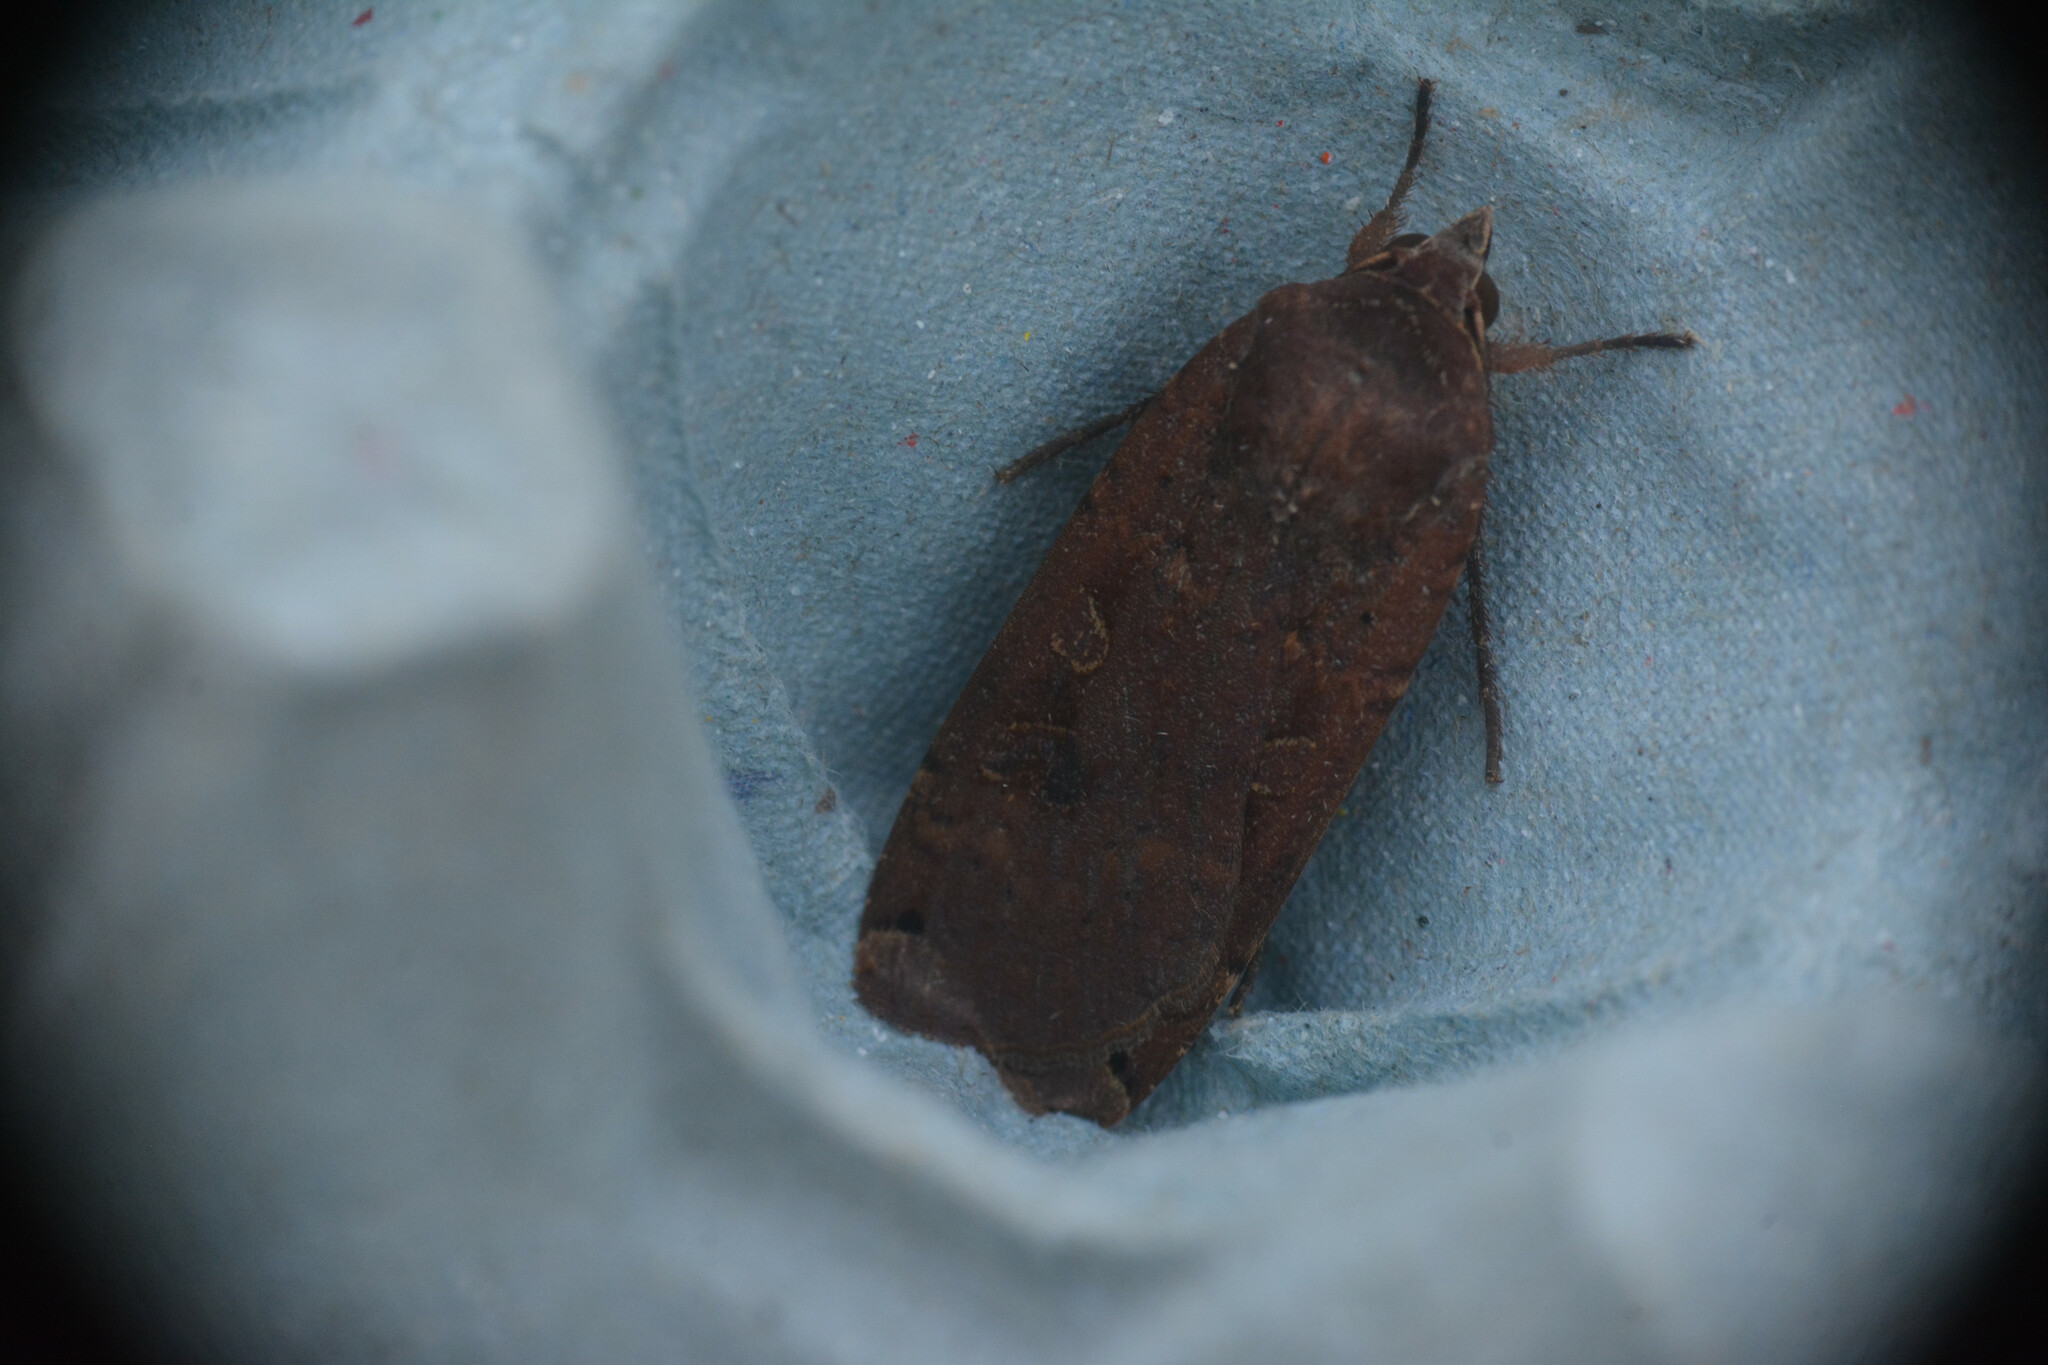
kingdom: Animalia
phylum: Arthropoda
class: Insecta
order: Lepidoptera
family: Noctuidae
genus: Noctua
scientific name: Noctua pronuba
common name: Large yellow underwing
